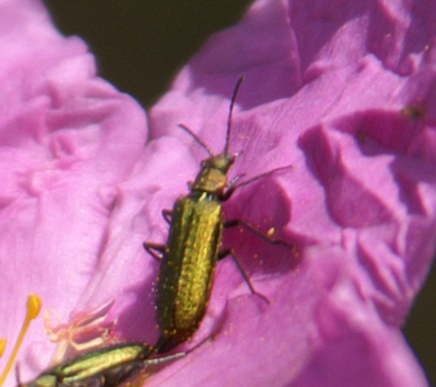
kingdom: Animalia
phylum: Arthropoda
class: Insecta
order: Coleoptera
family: Stenotrachelidae
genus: Stenotrachelus
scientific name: Stenotrachelus aeneus
